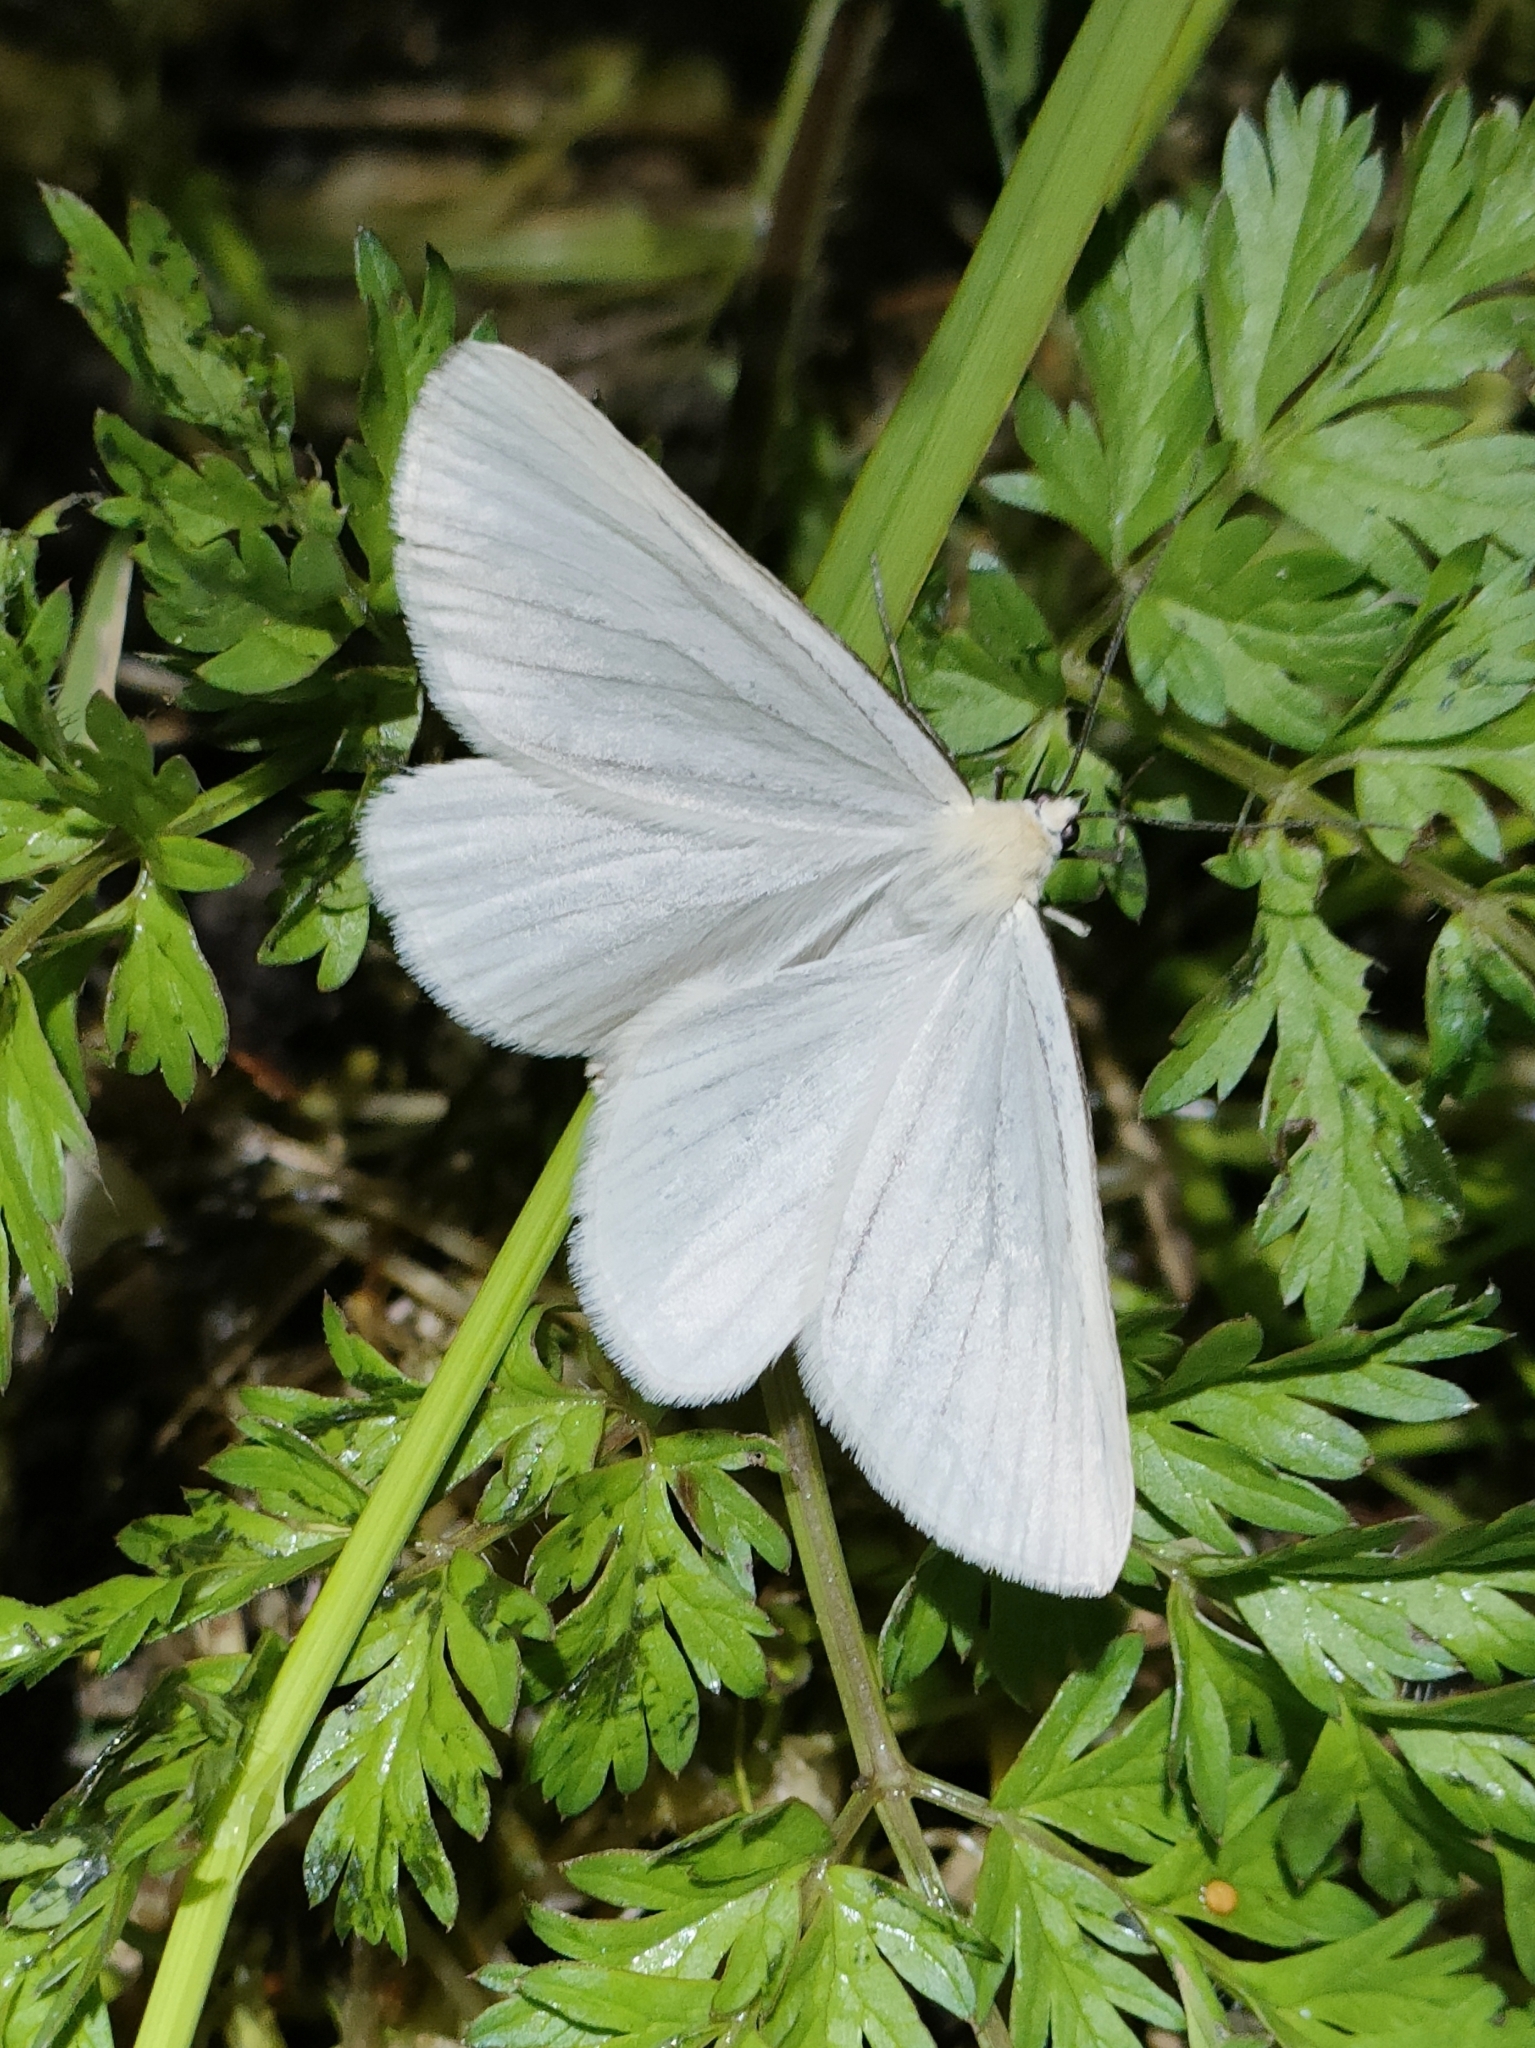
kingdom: Animalia
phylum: Arthropoda
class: Insecta
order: Lepidoptera
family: Geometridae
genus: Siona
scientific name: Siona lineata
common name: Black-veined moth
